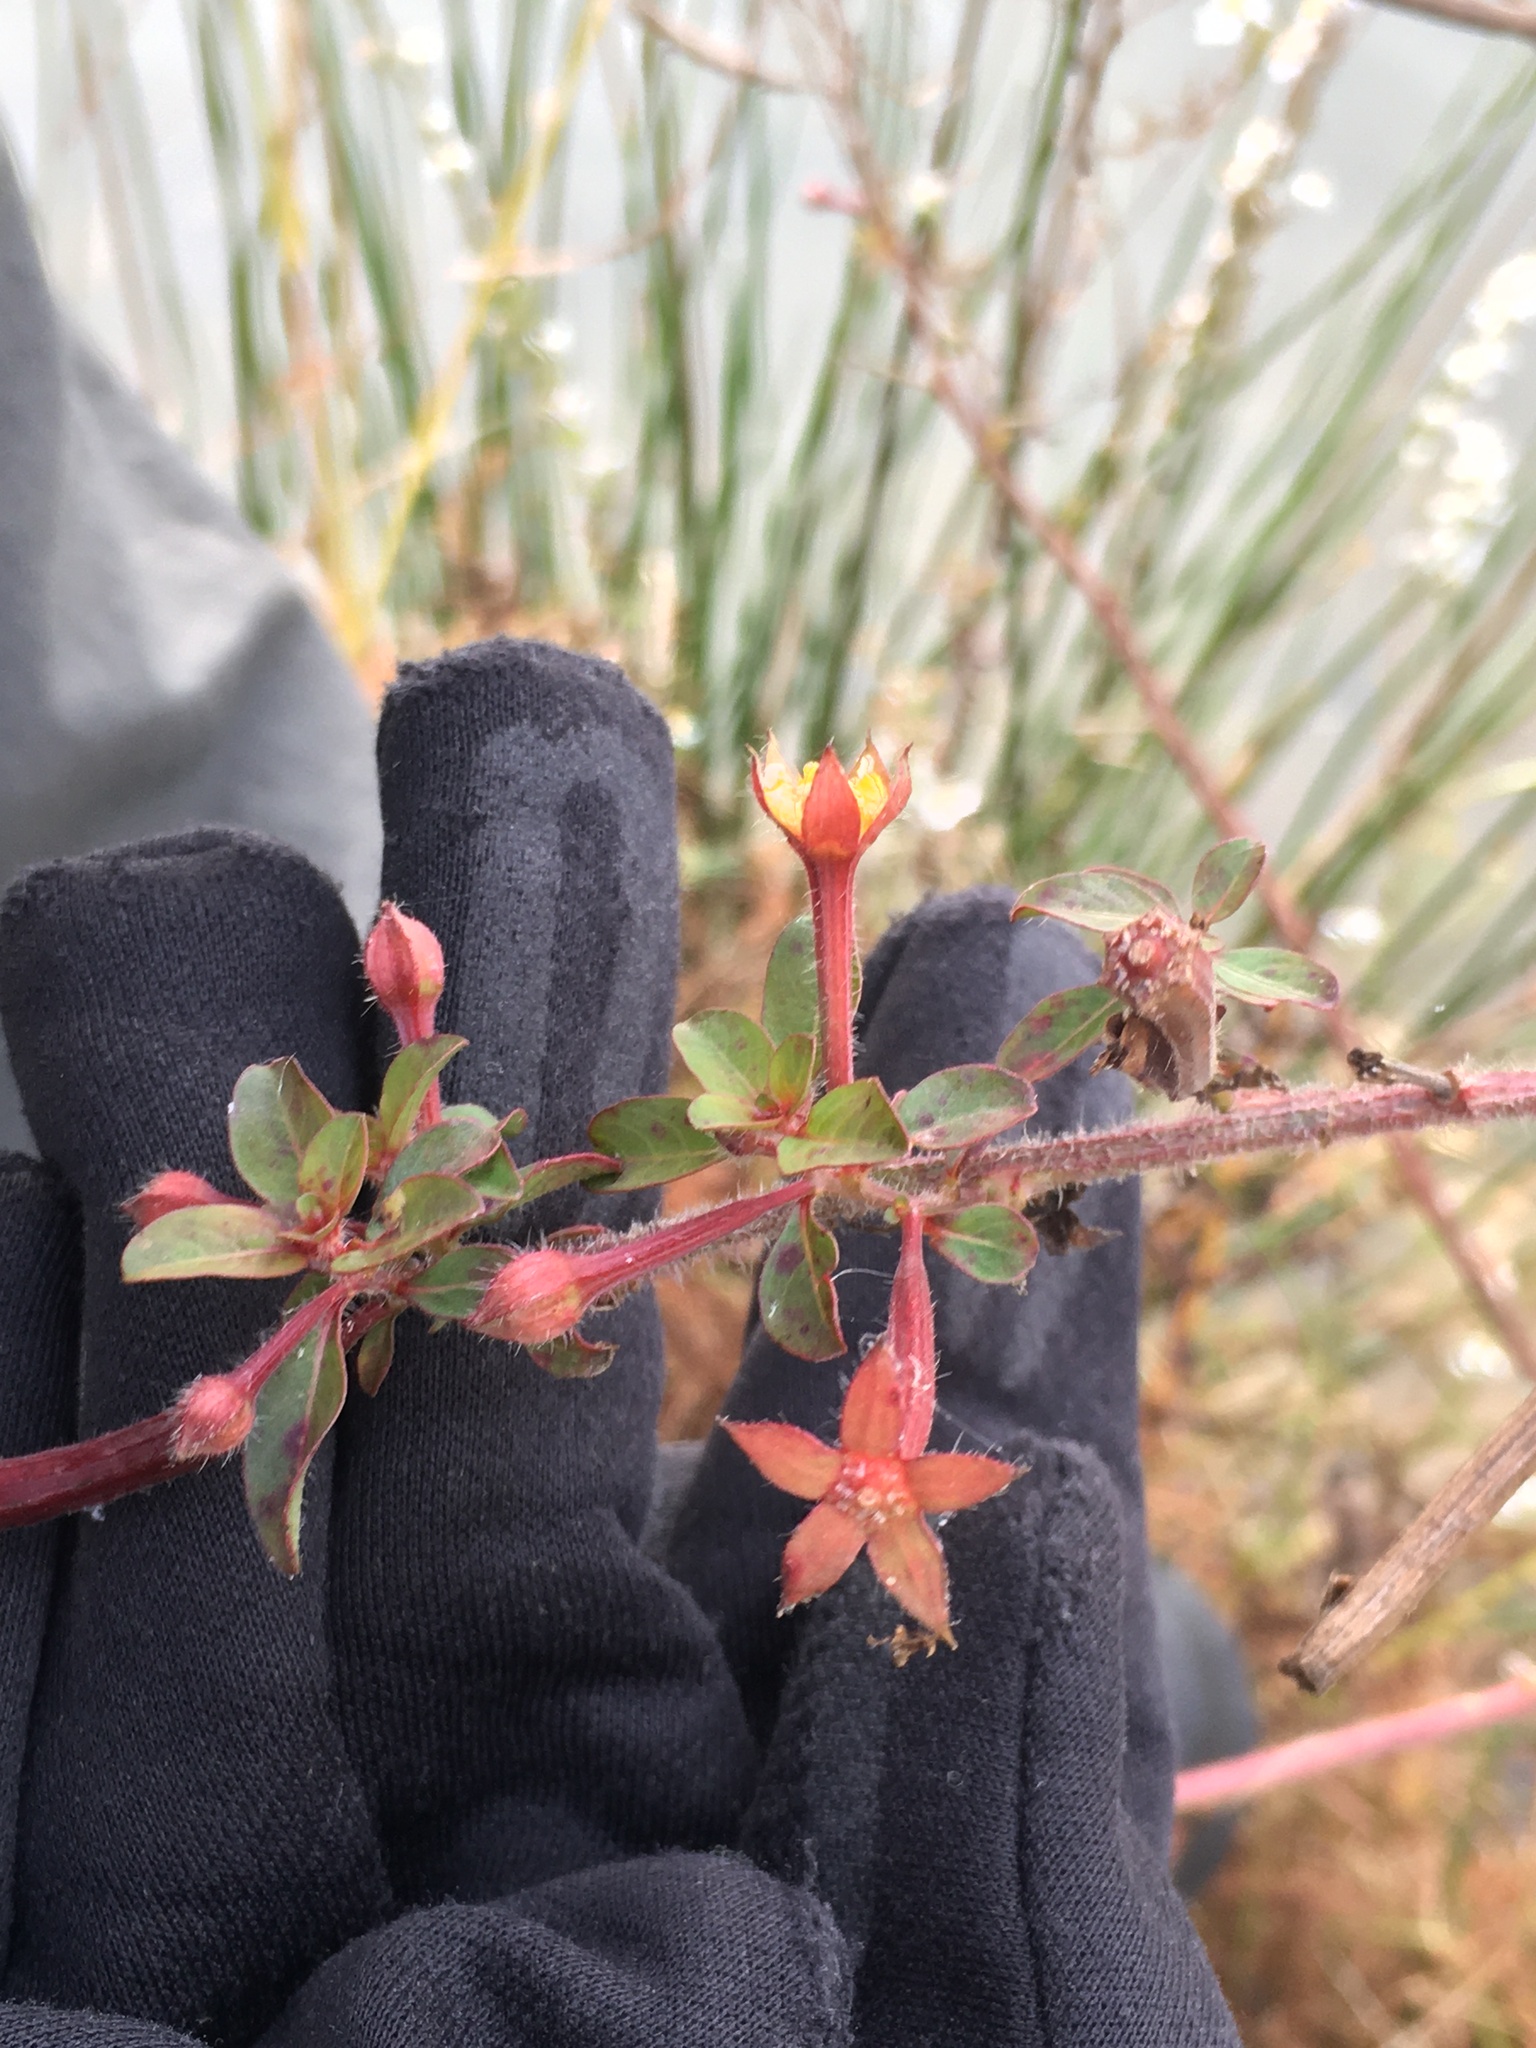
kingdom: Plantae
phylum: Tracheophyta
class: Magnoliopsida
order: Myrtales
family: Onagraceae
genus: Ludwigia
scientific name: Ludwigia leptocarpa
